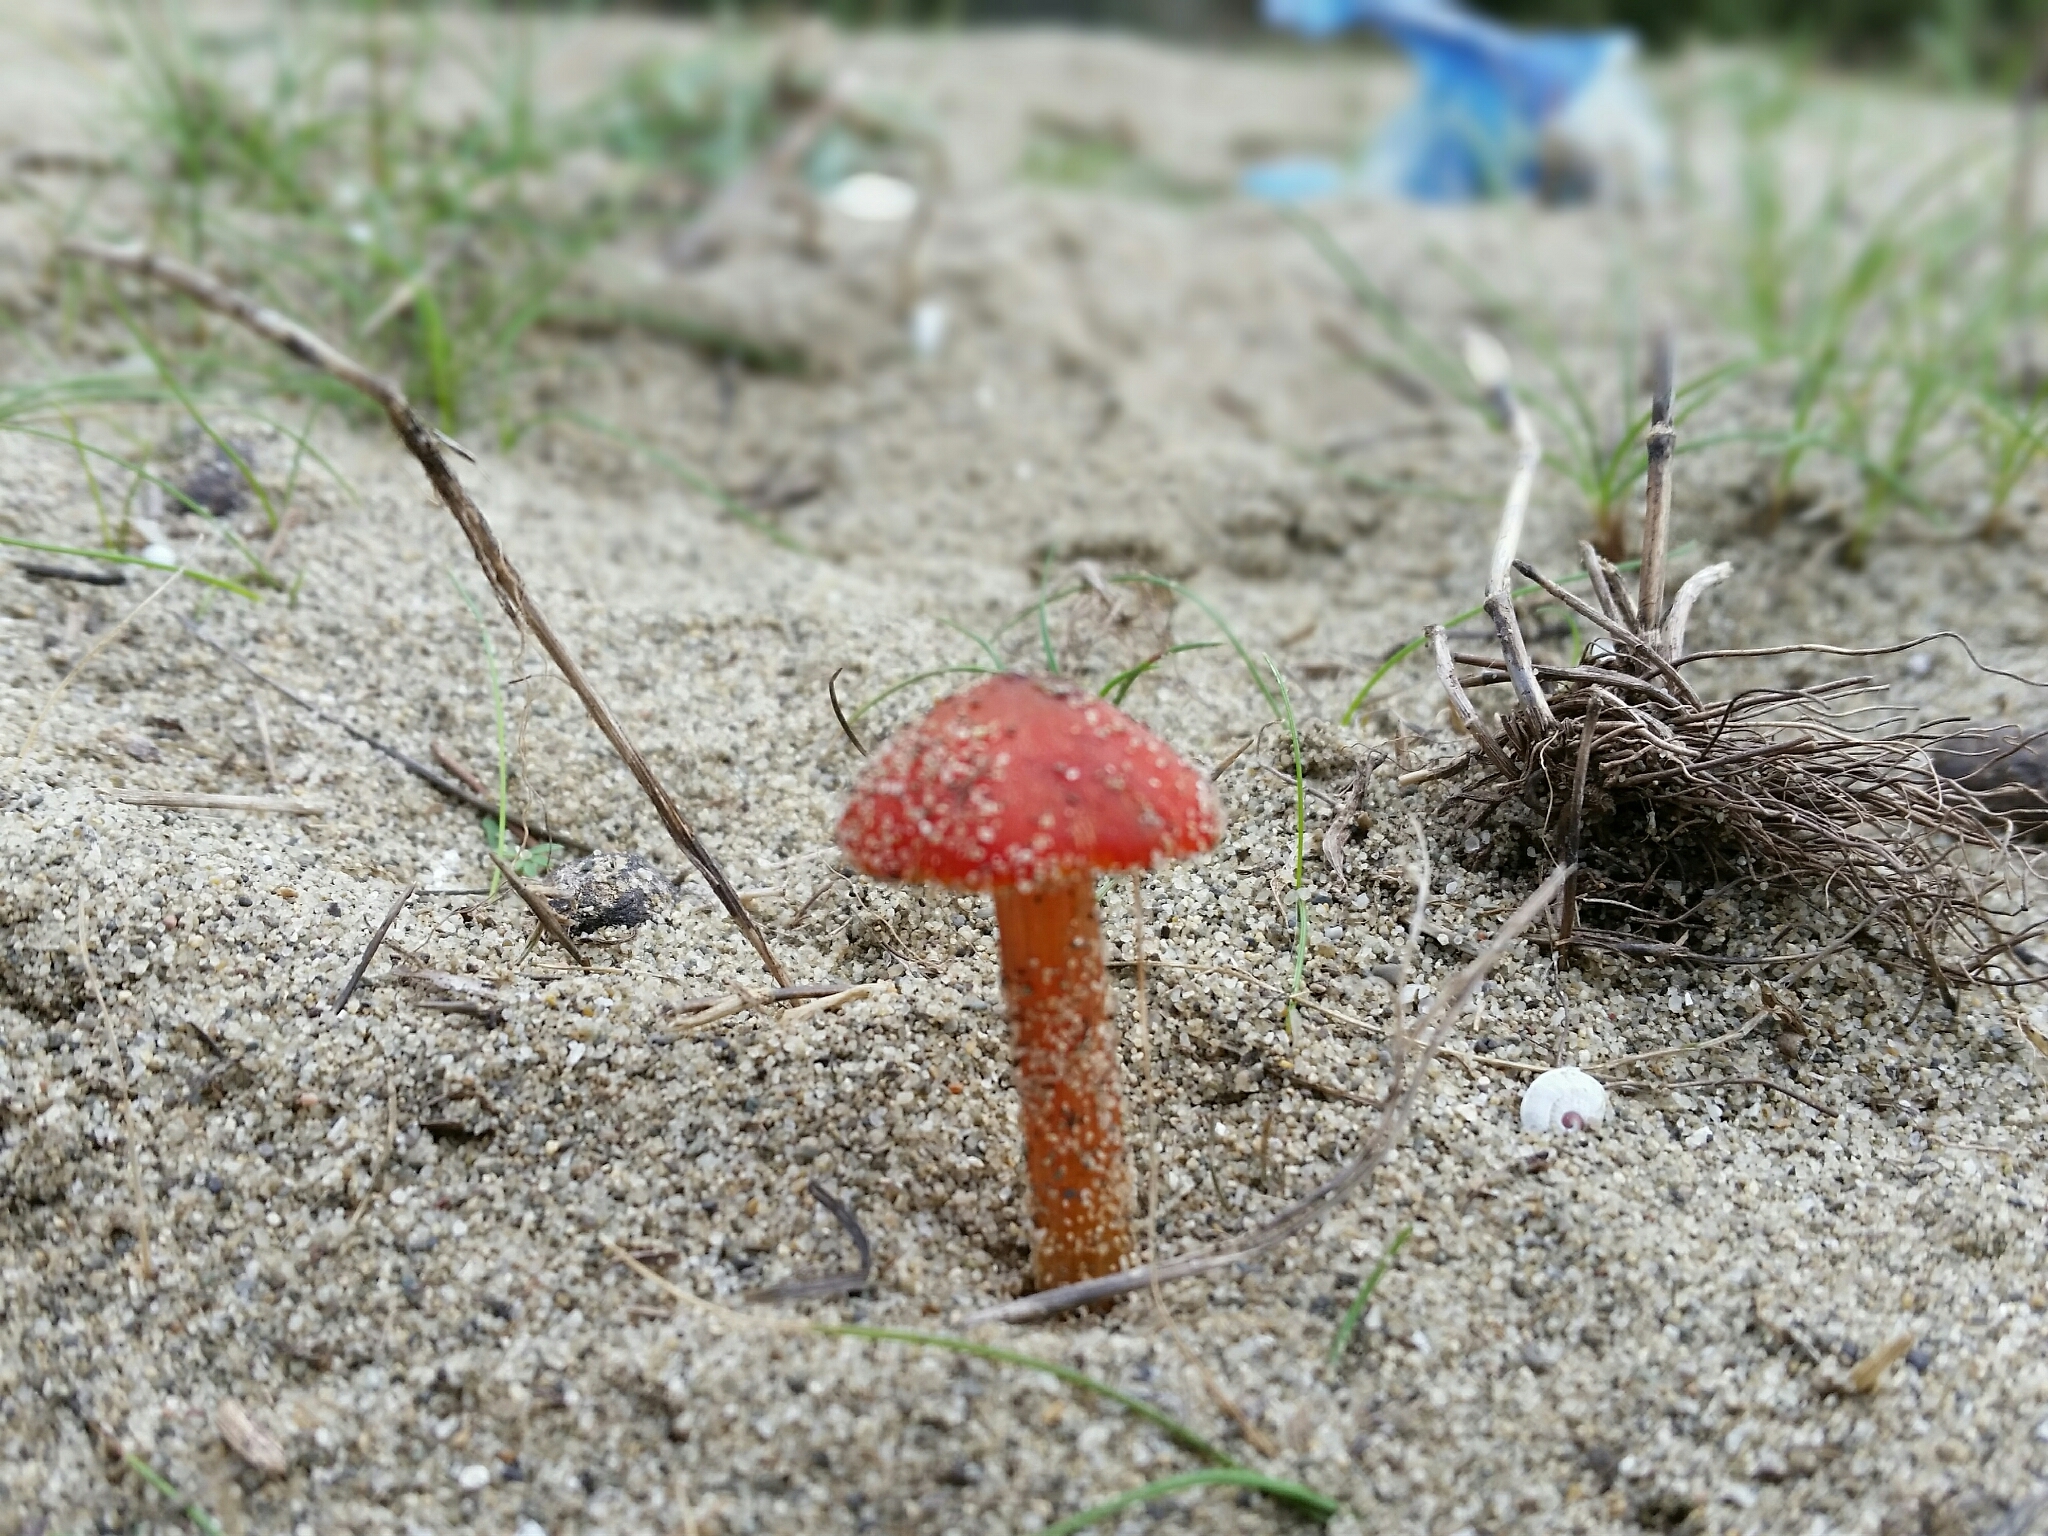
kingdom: Fungi
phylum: Basidiomycota
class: Agaricomycetes
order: Agaricales
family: Hygrophoraceae
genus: Hygrocybe
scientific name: Hygrocybe conicoides
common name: Dune waxcap
